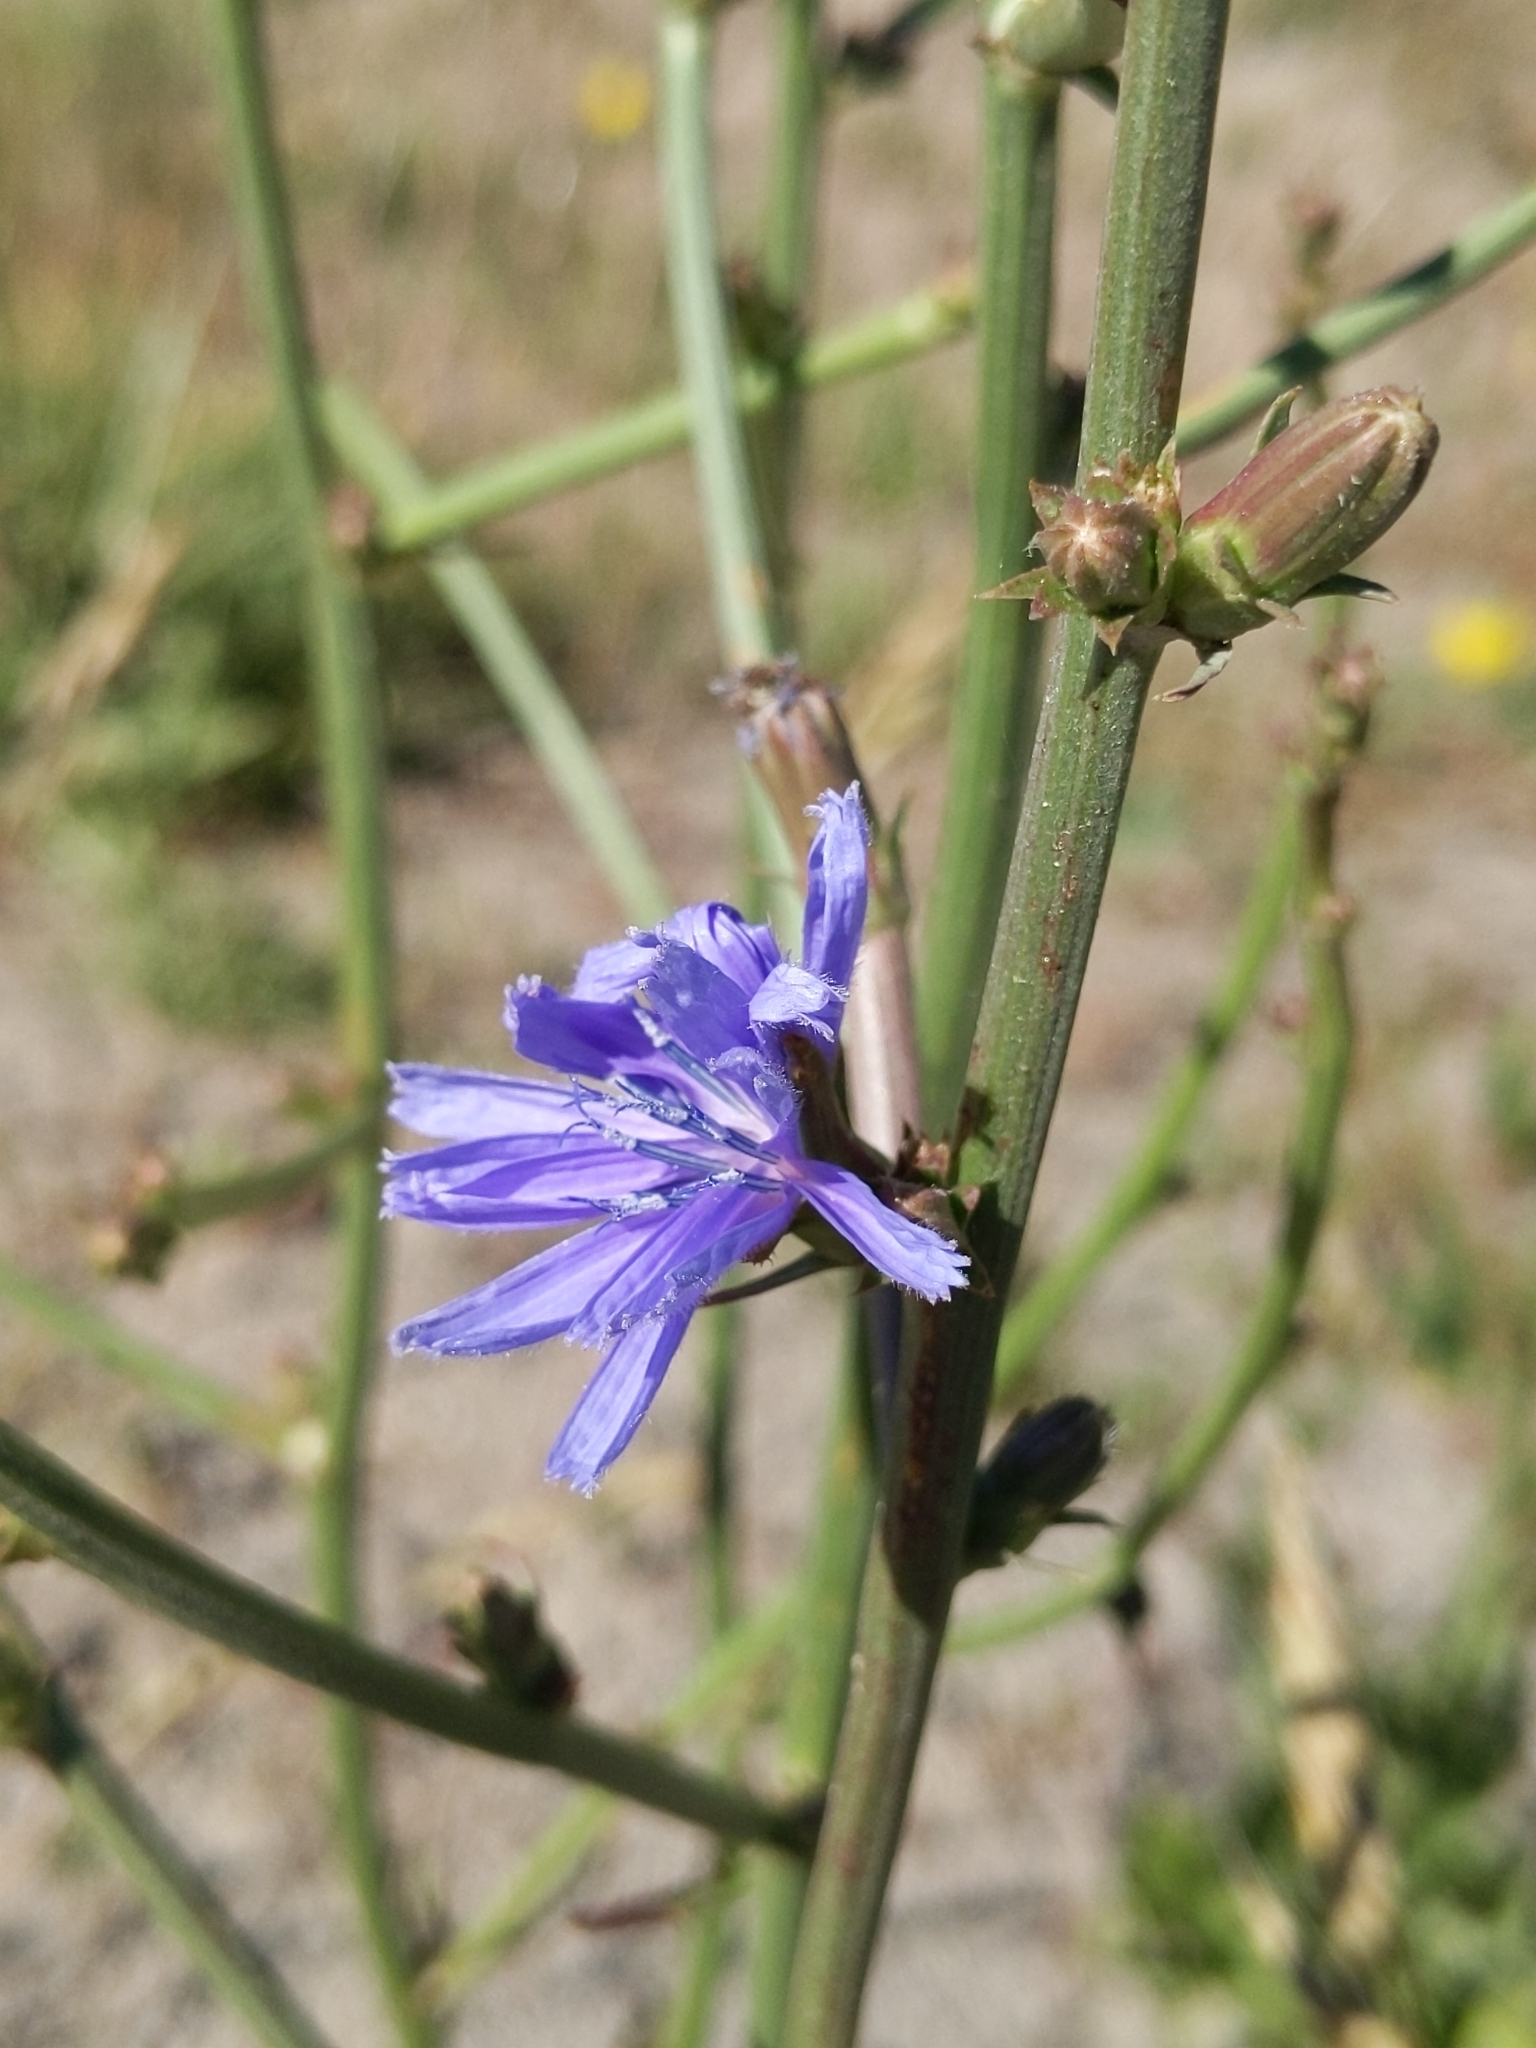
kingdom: Plantae
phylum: Tracheophyta
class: Magnoliopsida
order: Asterales
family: Asteraceae
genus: Cichorium
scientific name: Cichorium intybus
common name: Chicory
